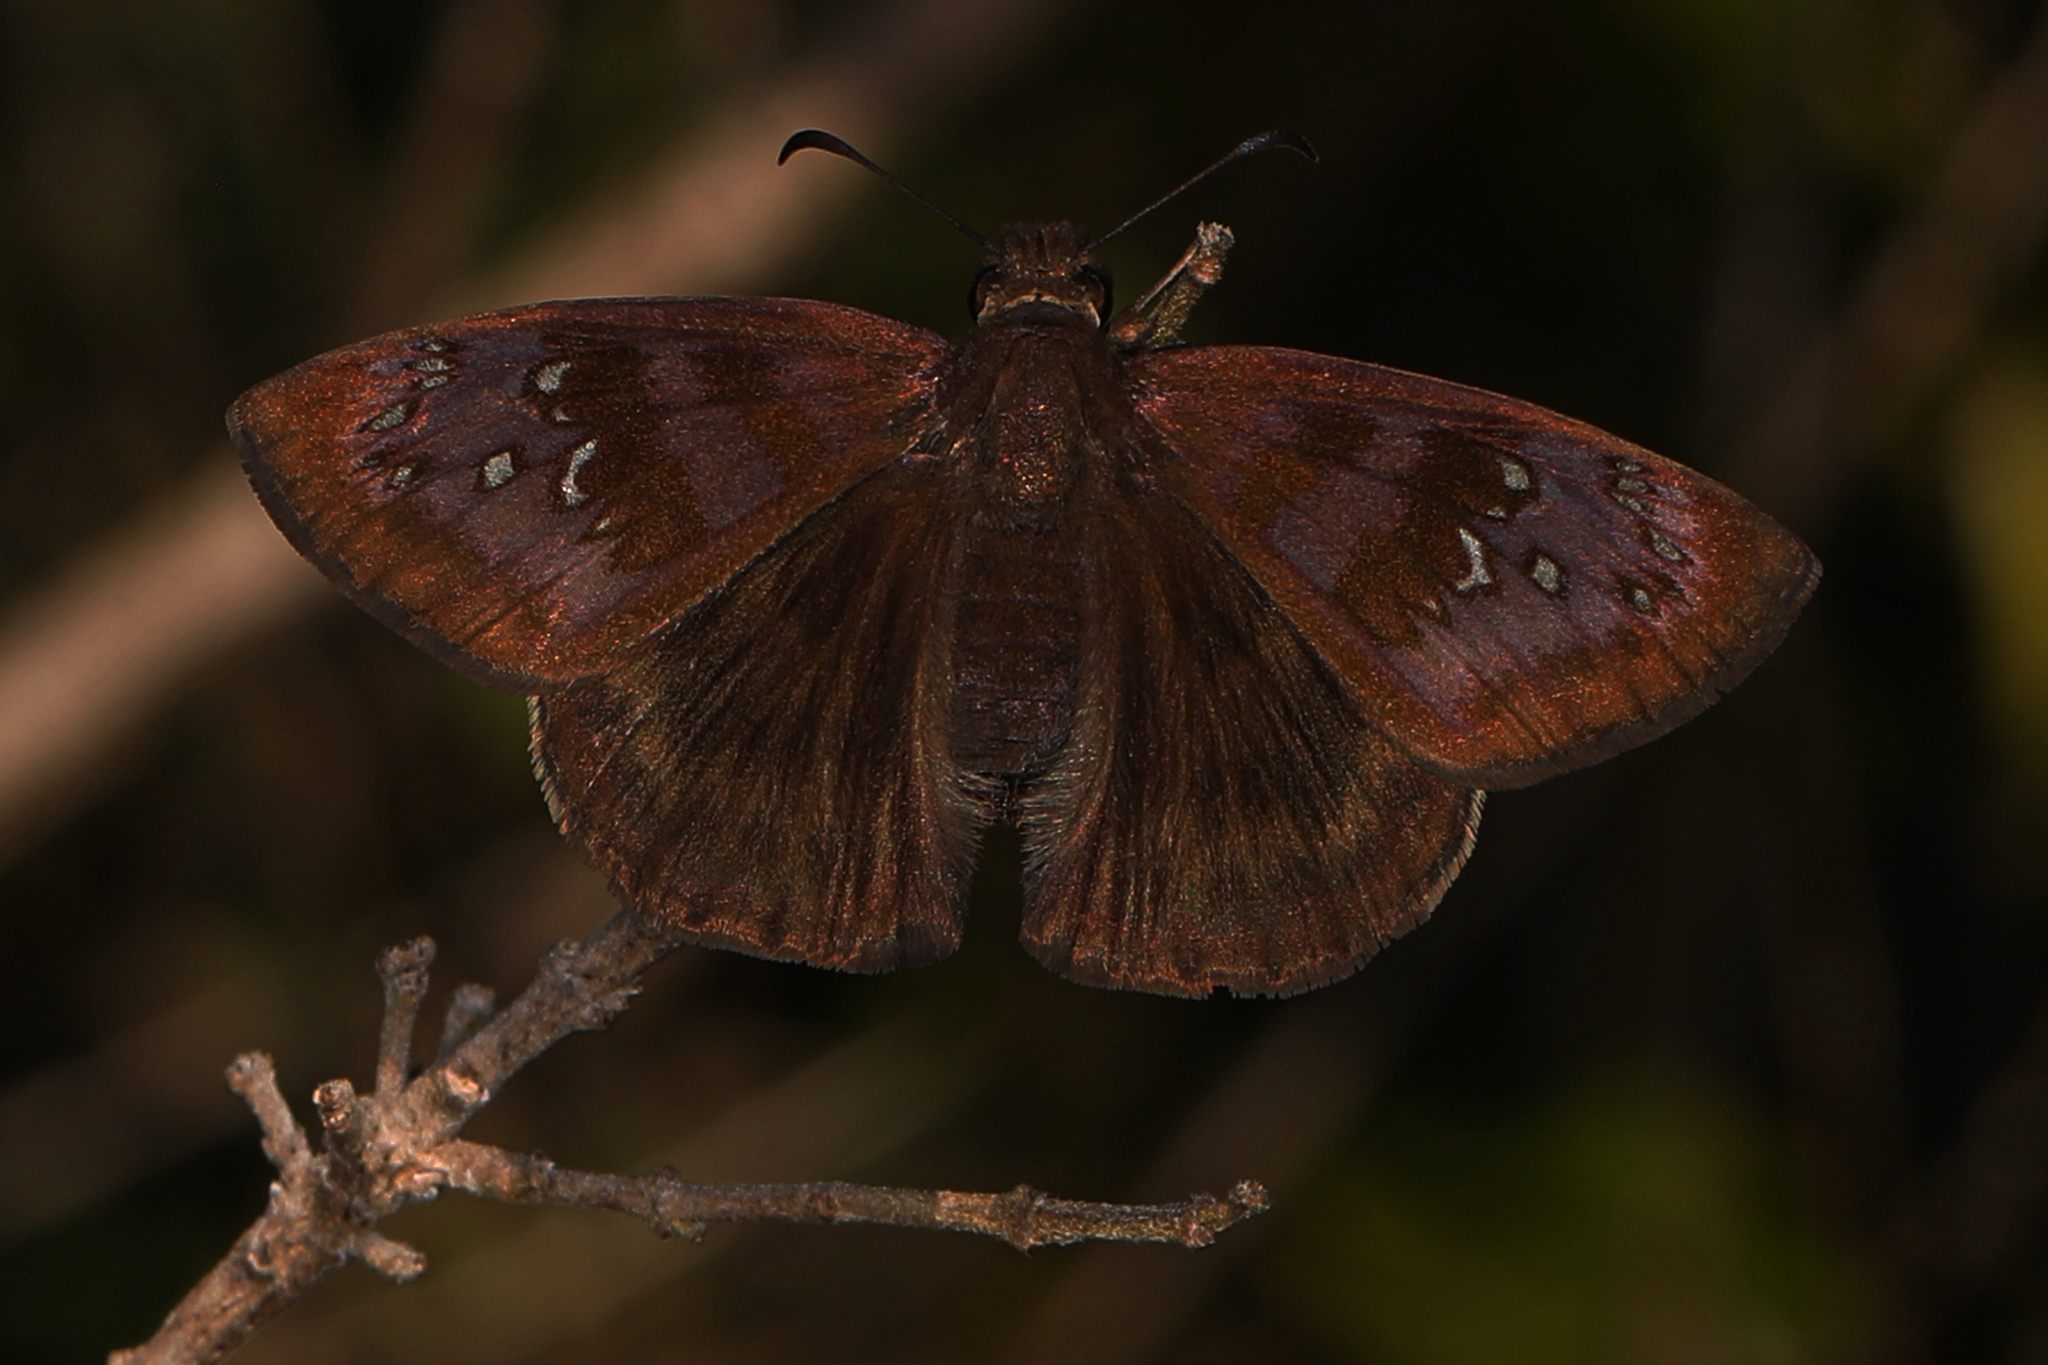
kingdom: Animalia
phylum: Arthropoda
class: Insecta
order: Lepidoptera
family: Hesperiidae
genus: Ephyriades
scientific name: Ephyriades brunnea
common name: Florida duskywing
